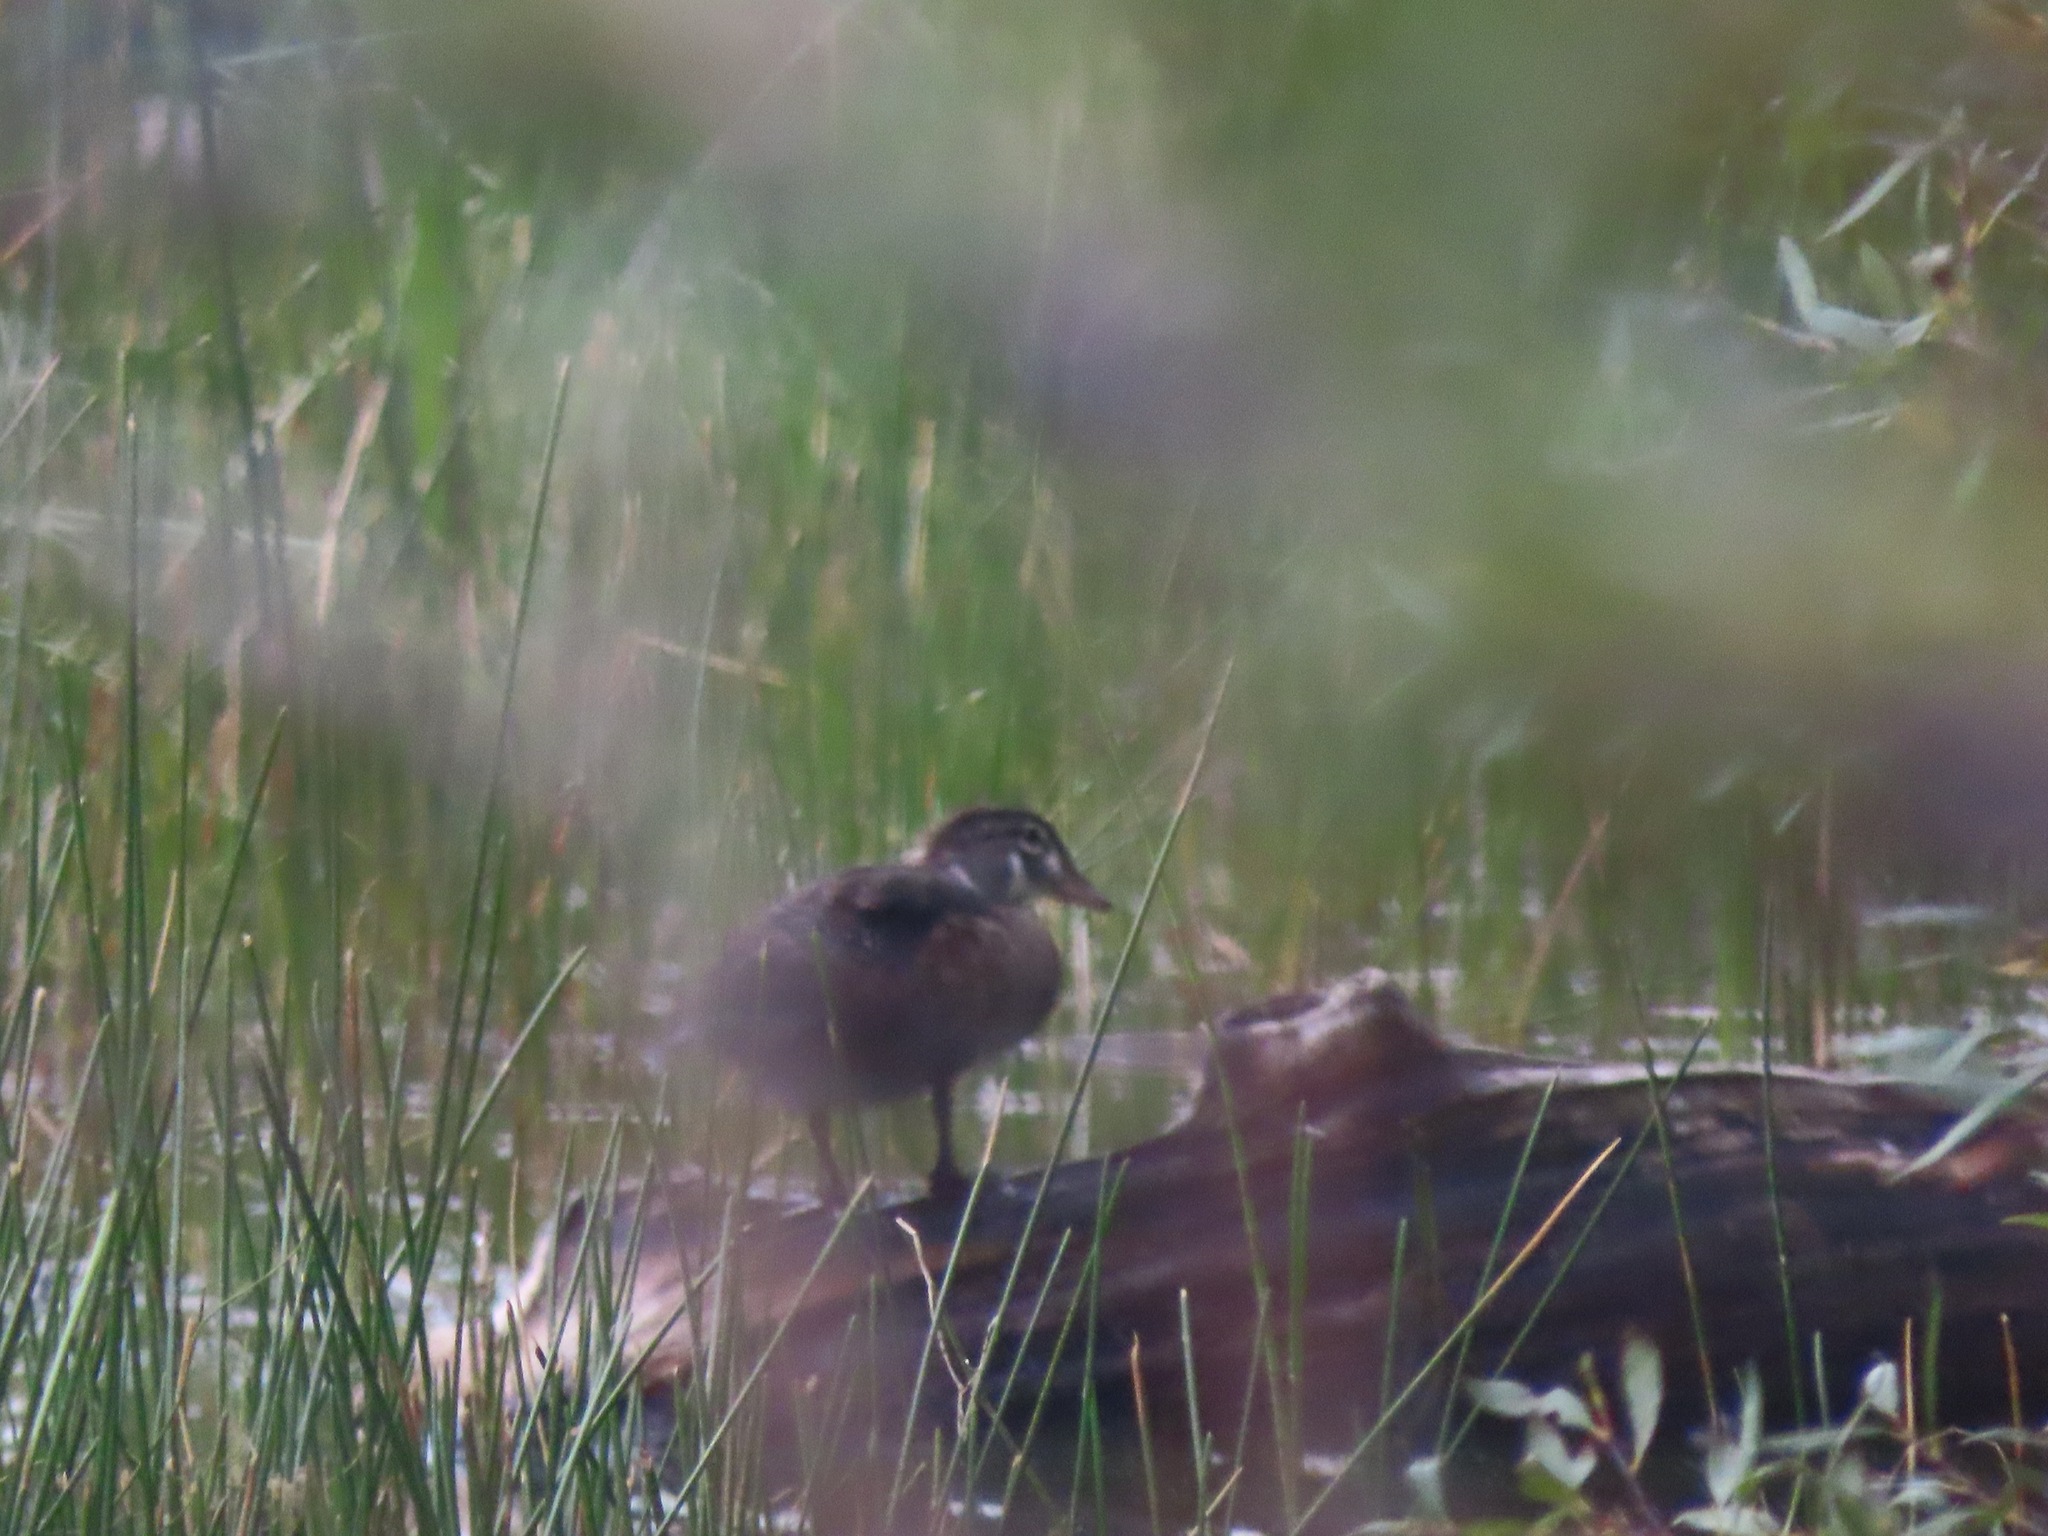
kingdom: Animalia
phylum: Chordata
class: Aves
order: Anseriformes
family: Anatidae
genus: Aix
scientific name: Aix sponsa
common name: Wood duck
